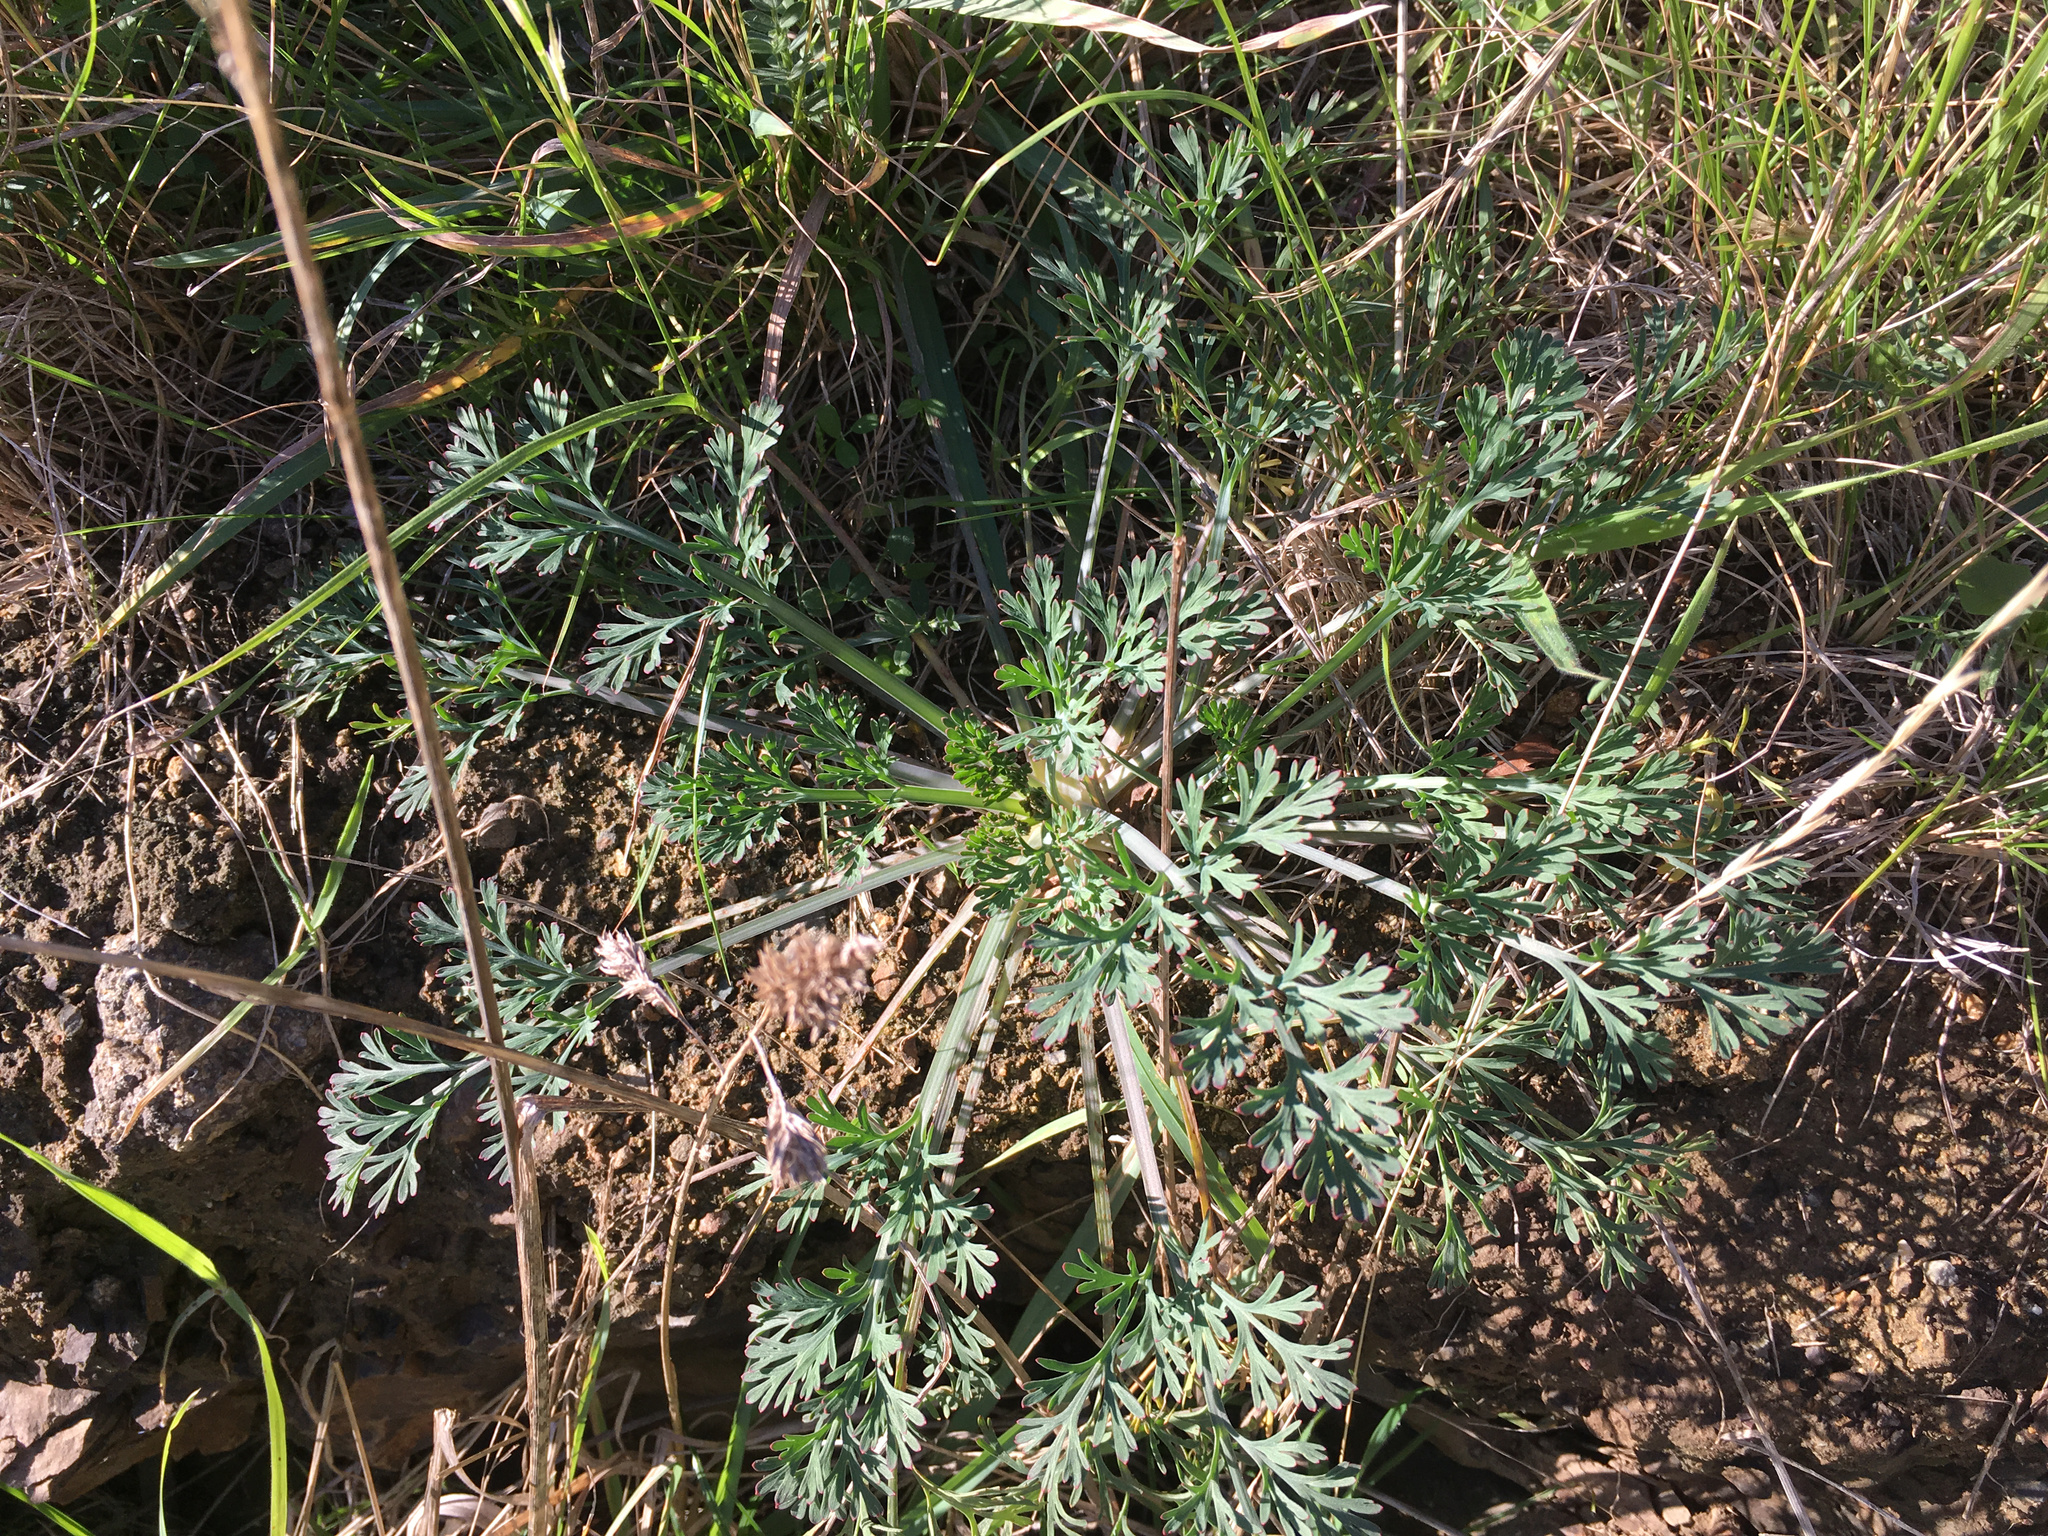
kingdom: Plantae
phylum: Tracheophyta
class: Magnoliopsida
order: Ranunculales
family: Papaveraceae
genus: Eschscholzia
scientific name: Eschscholzia californica
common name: California poppy
